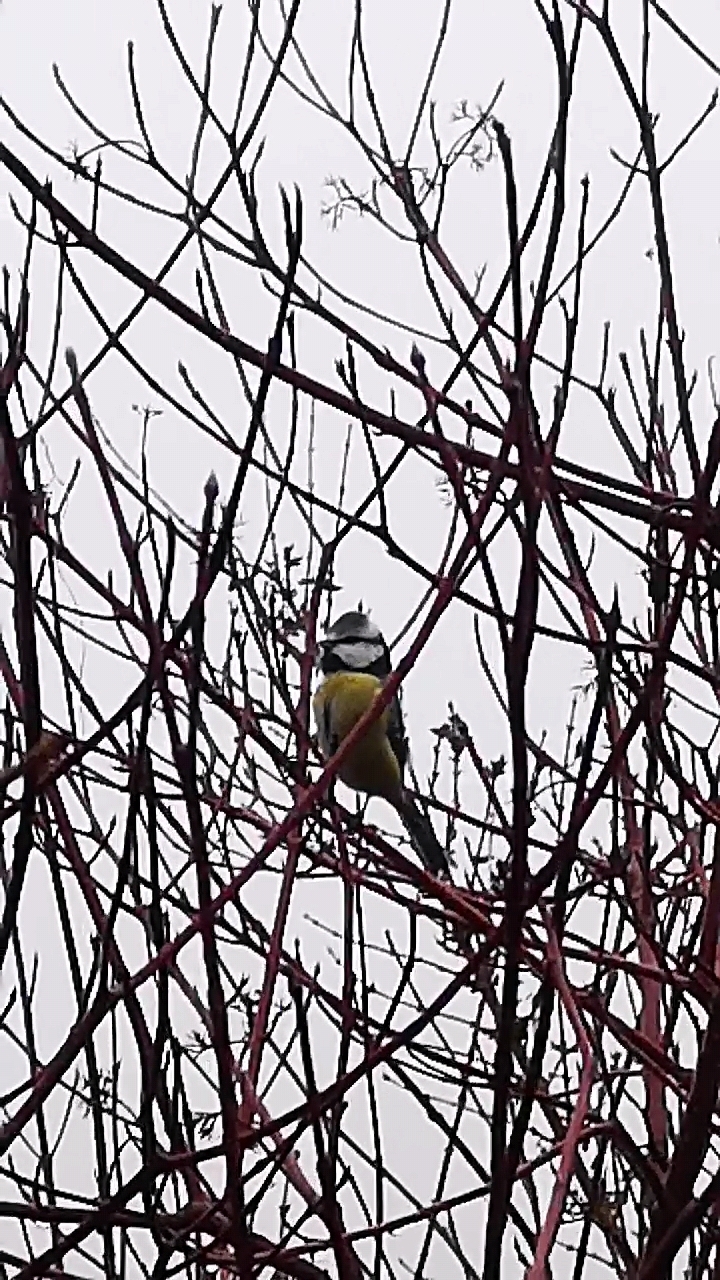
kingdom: Animalia
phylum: Chordata
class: Aves
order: Passeriformes
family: Paridae
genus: Cyanistes
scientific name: Cyanistes caeruleus
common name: Eurasian blue tit
